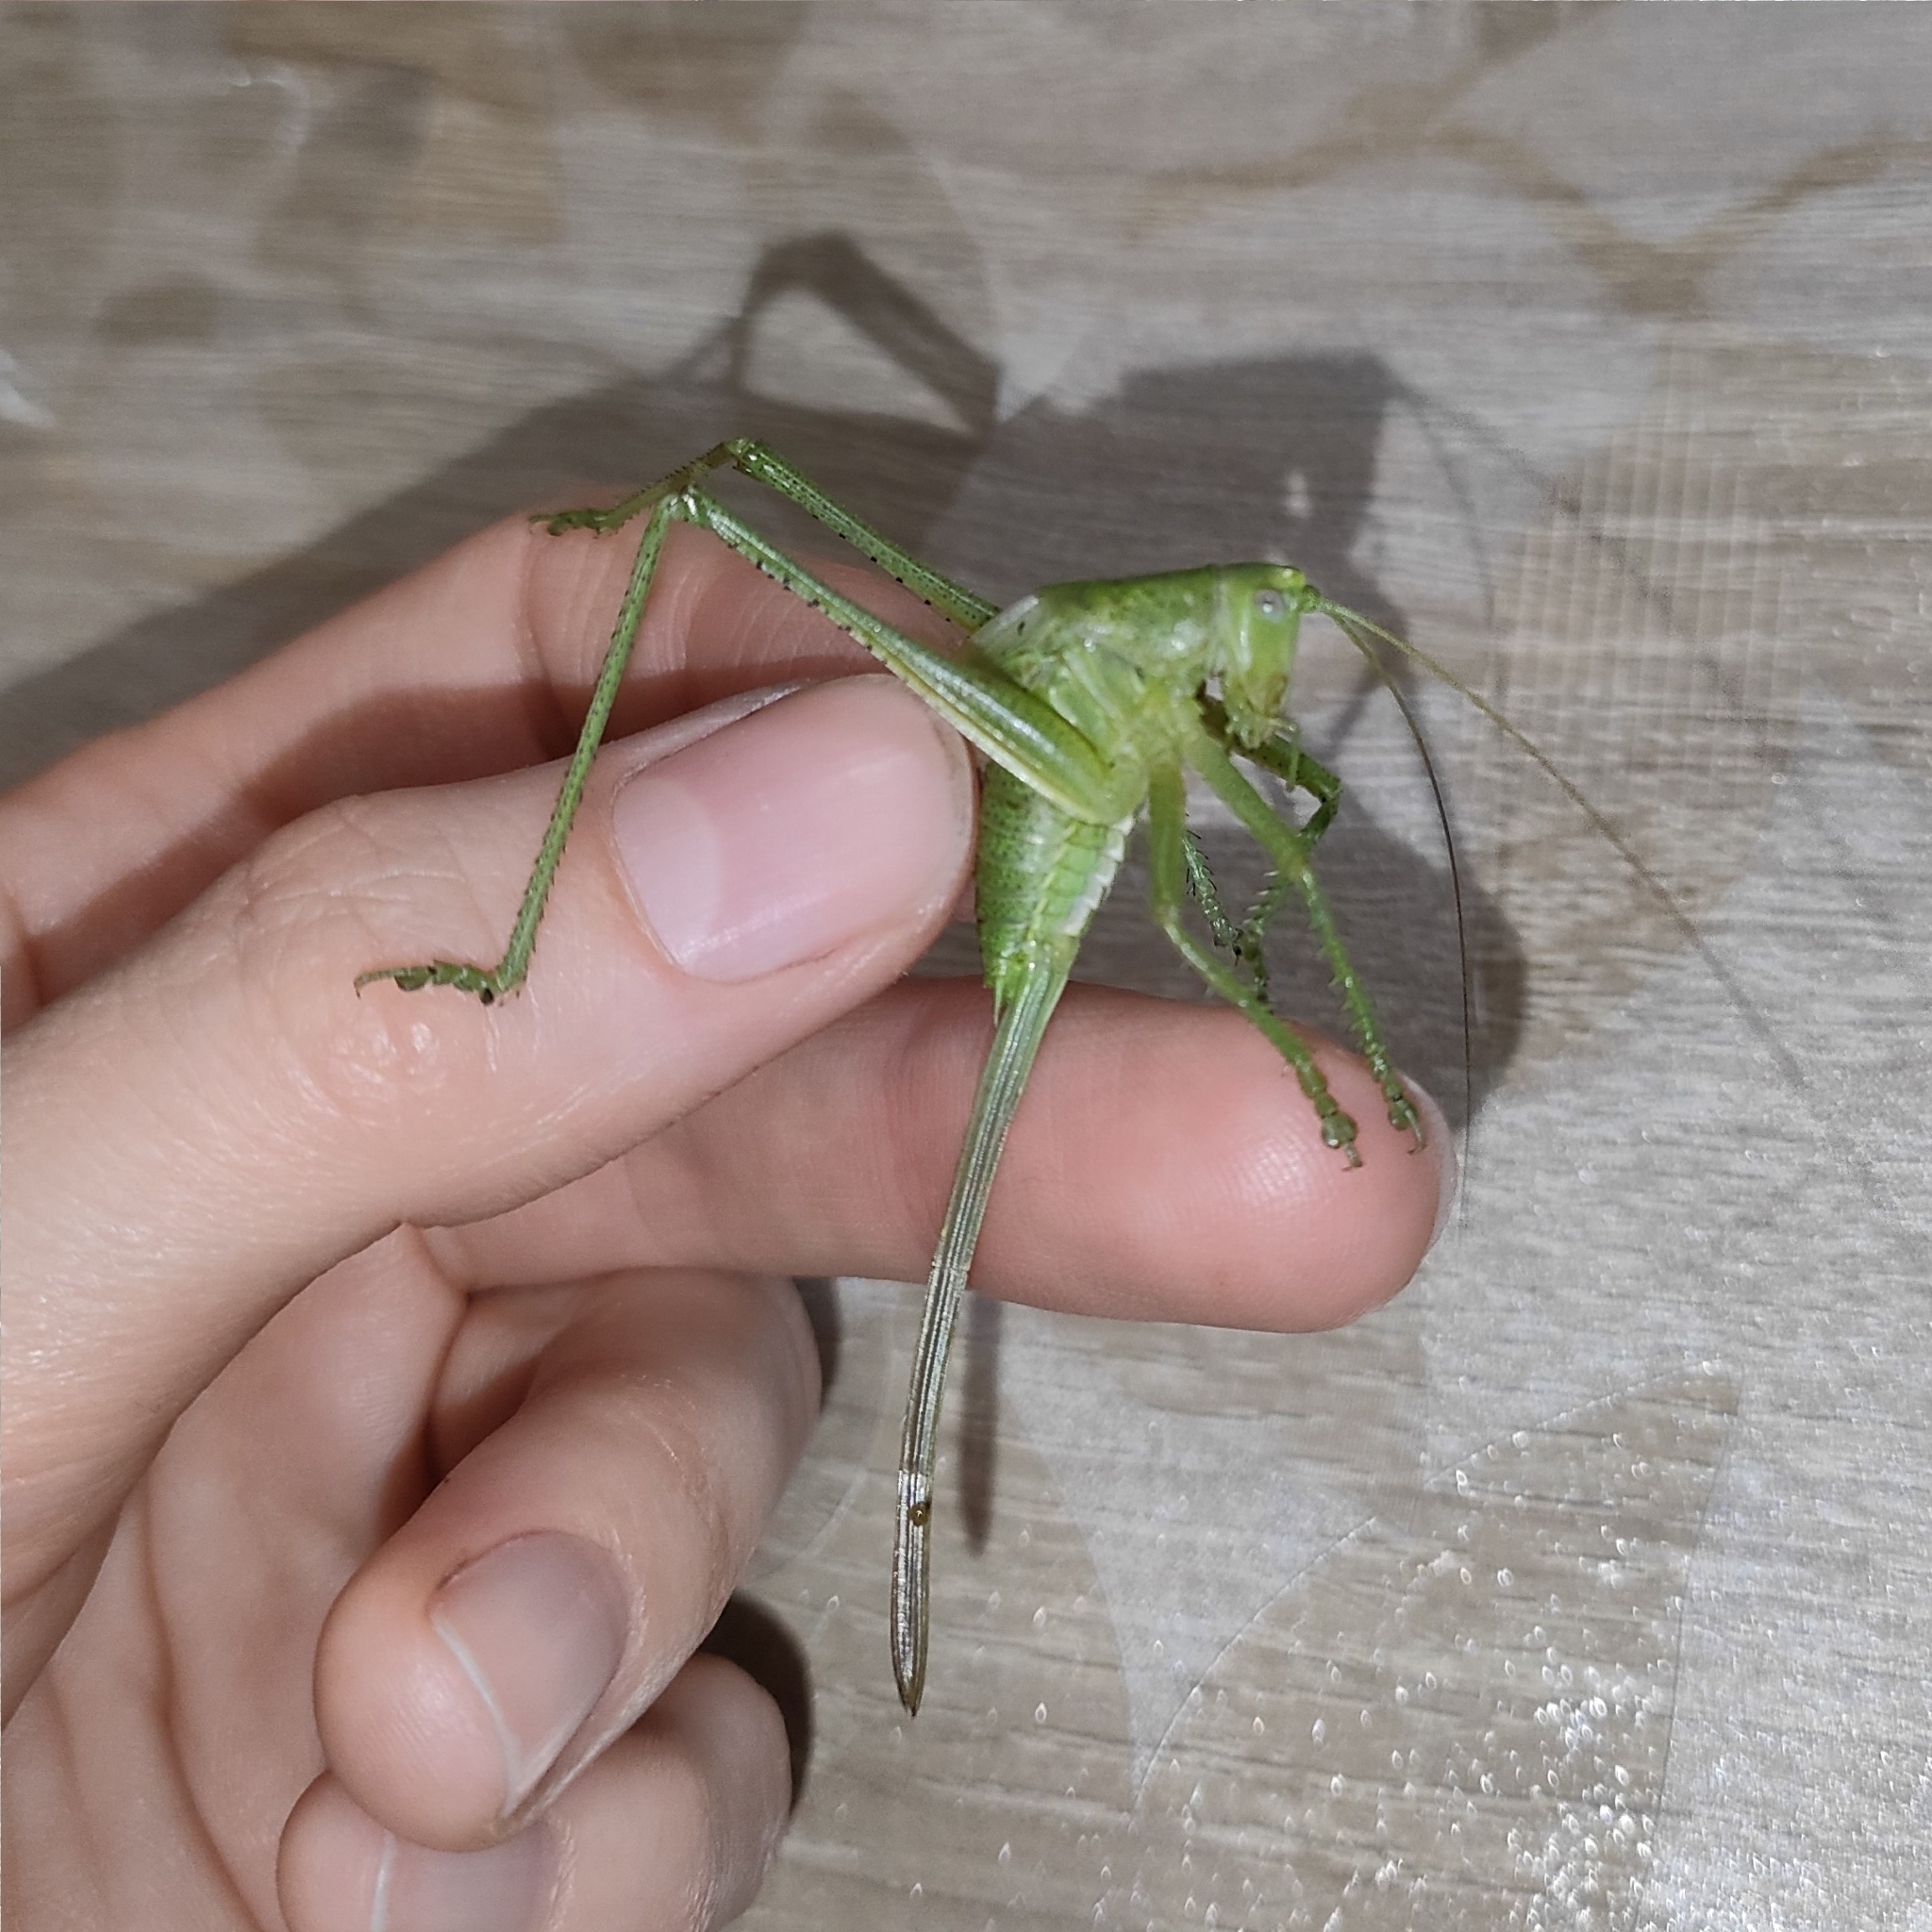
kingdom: Animalia
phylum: Arthropoda
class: Insecta
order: Orthoptera
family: Tettigoniidae
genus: Tettigonia
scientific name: Tettigonia caudata
